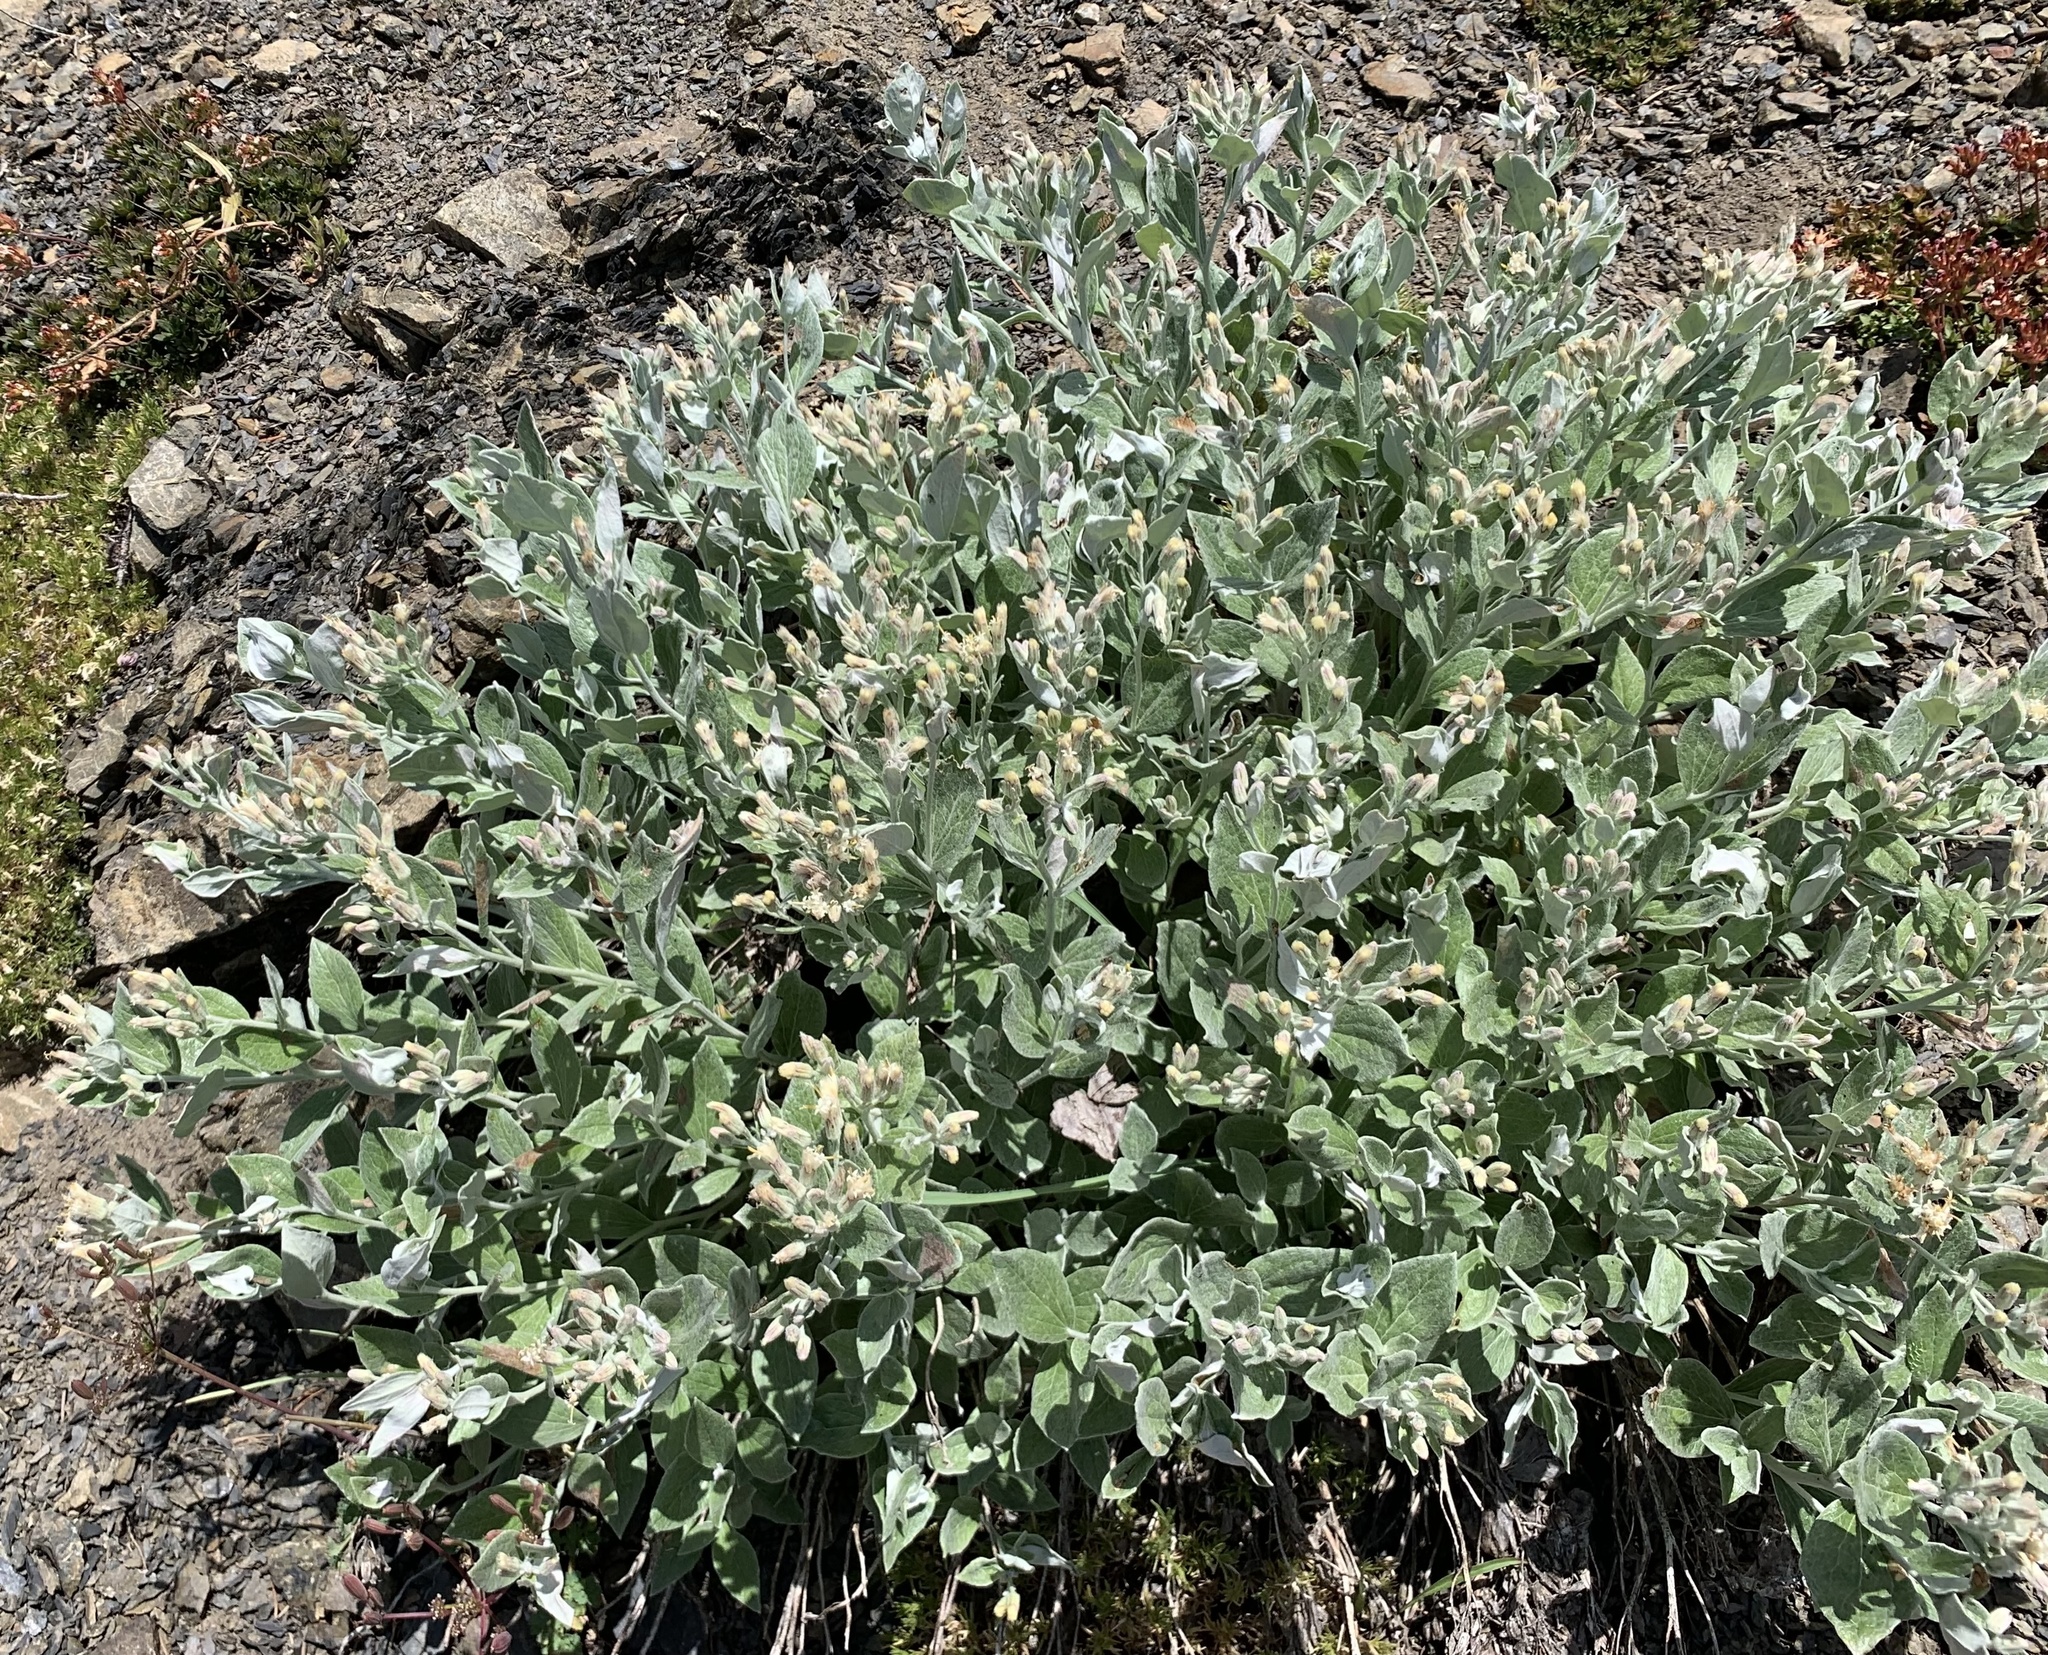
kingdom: Plantae
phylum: Tracheophyta
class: Magnoliopsida
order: Asterales
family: Asteraceae
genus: Luina
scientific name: Luina hypoleuca
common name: Little-leaved luina
